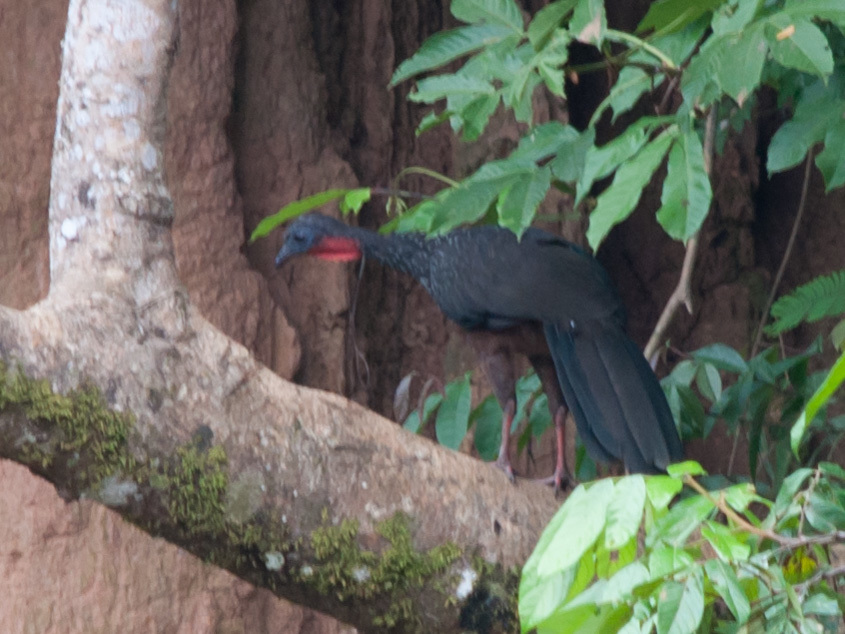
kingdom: Animalia
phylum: Chordata
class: Aves
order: Galliformes
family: Cracidae
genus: Penelope
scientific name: Penelope jacquacu
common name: Spix's guan
